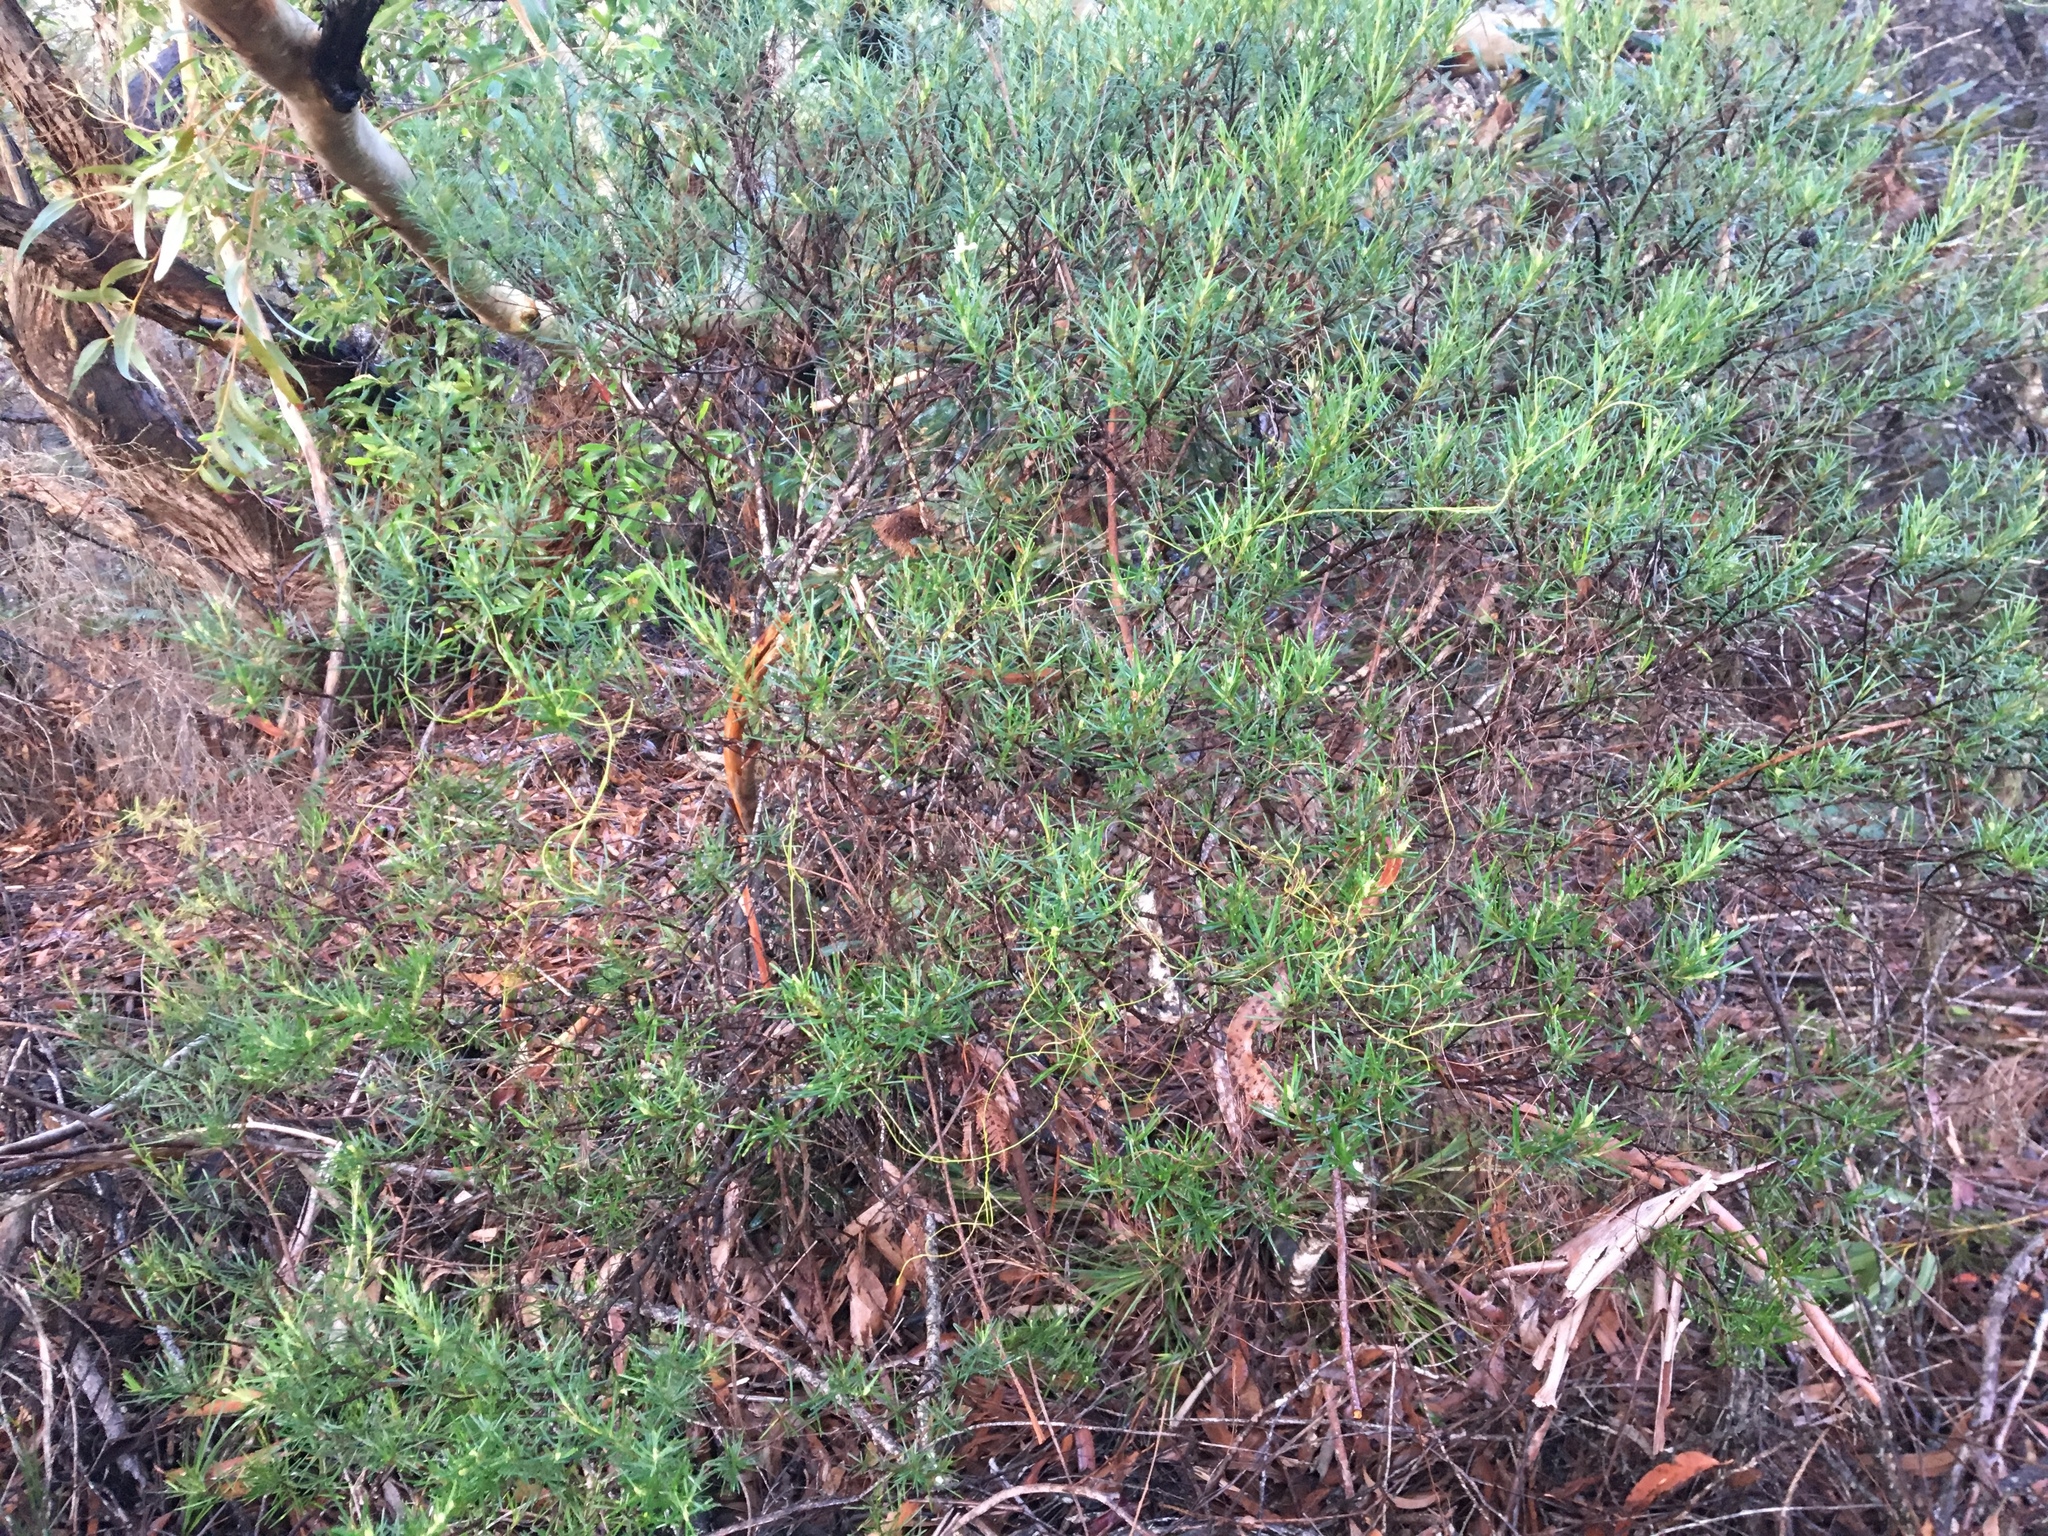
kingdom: Plantae
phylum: Tracheophyta
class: Magnoliopsida
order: Malpighiales
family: Euphorbiaceae
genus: Ricinocarpos
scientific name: Ricinocarpos pinifolius
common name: Weddingbush
